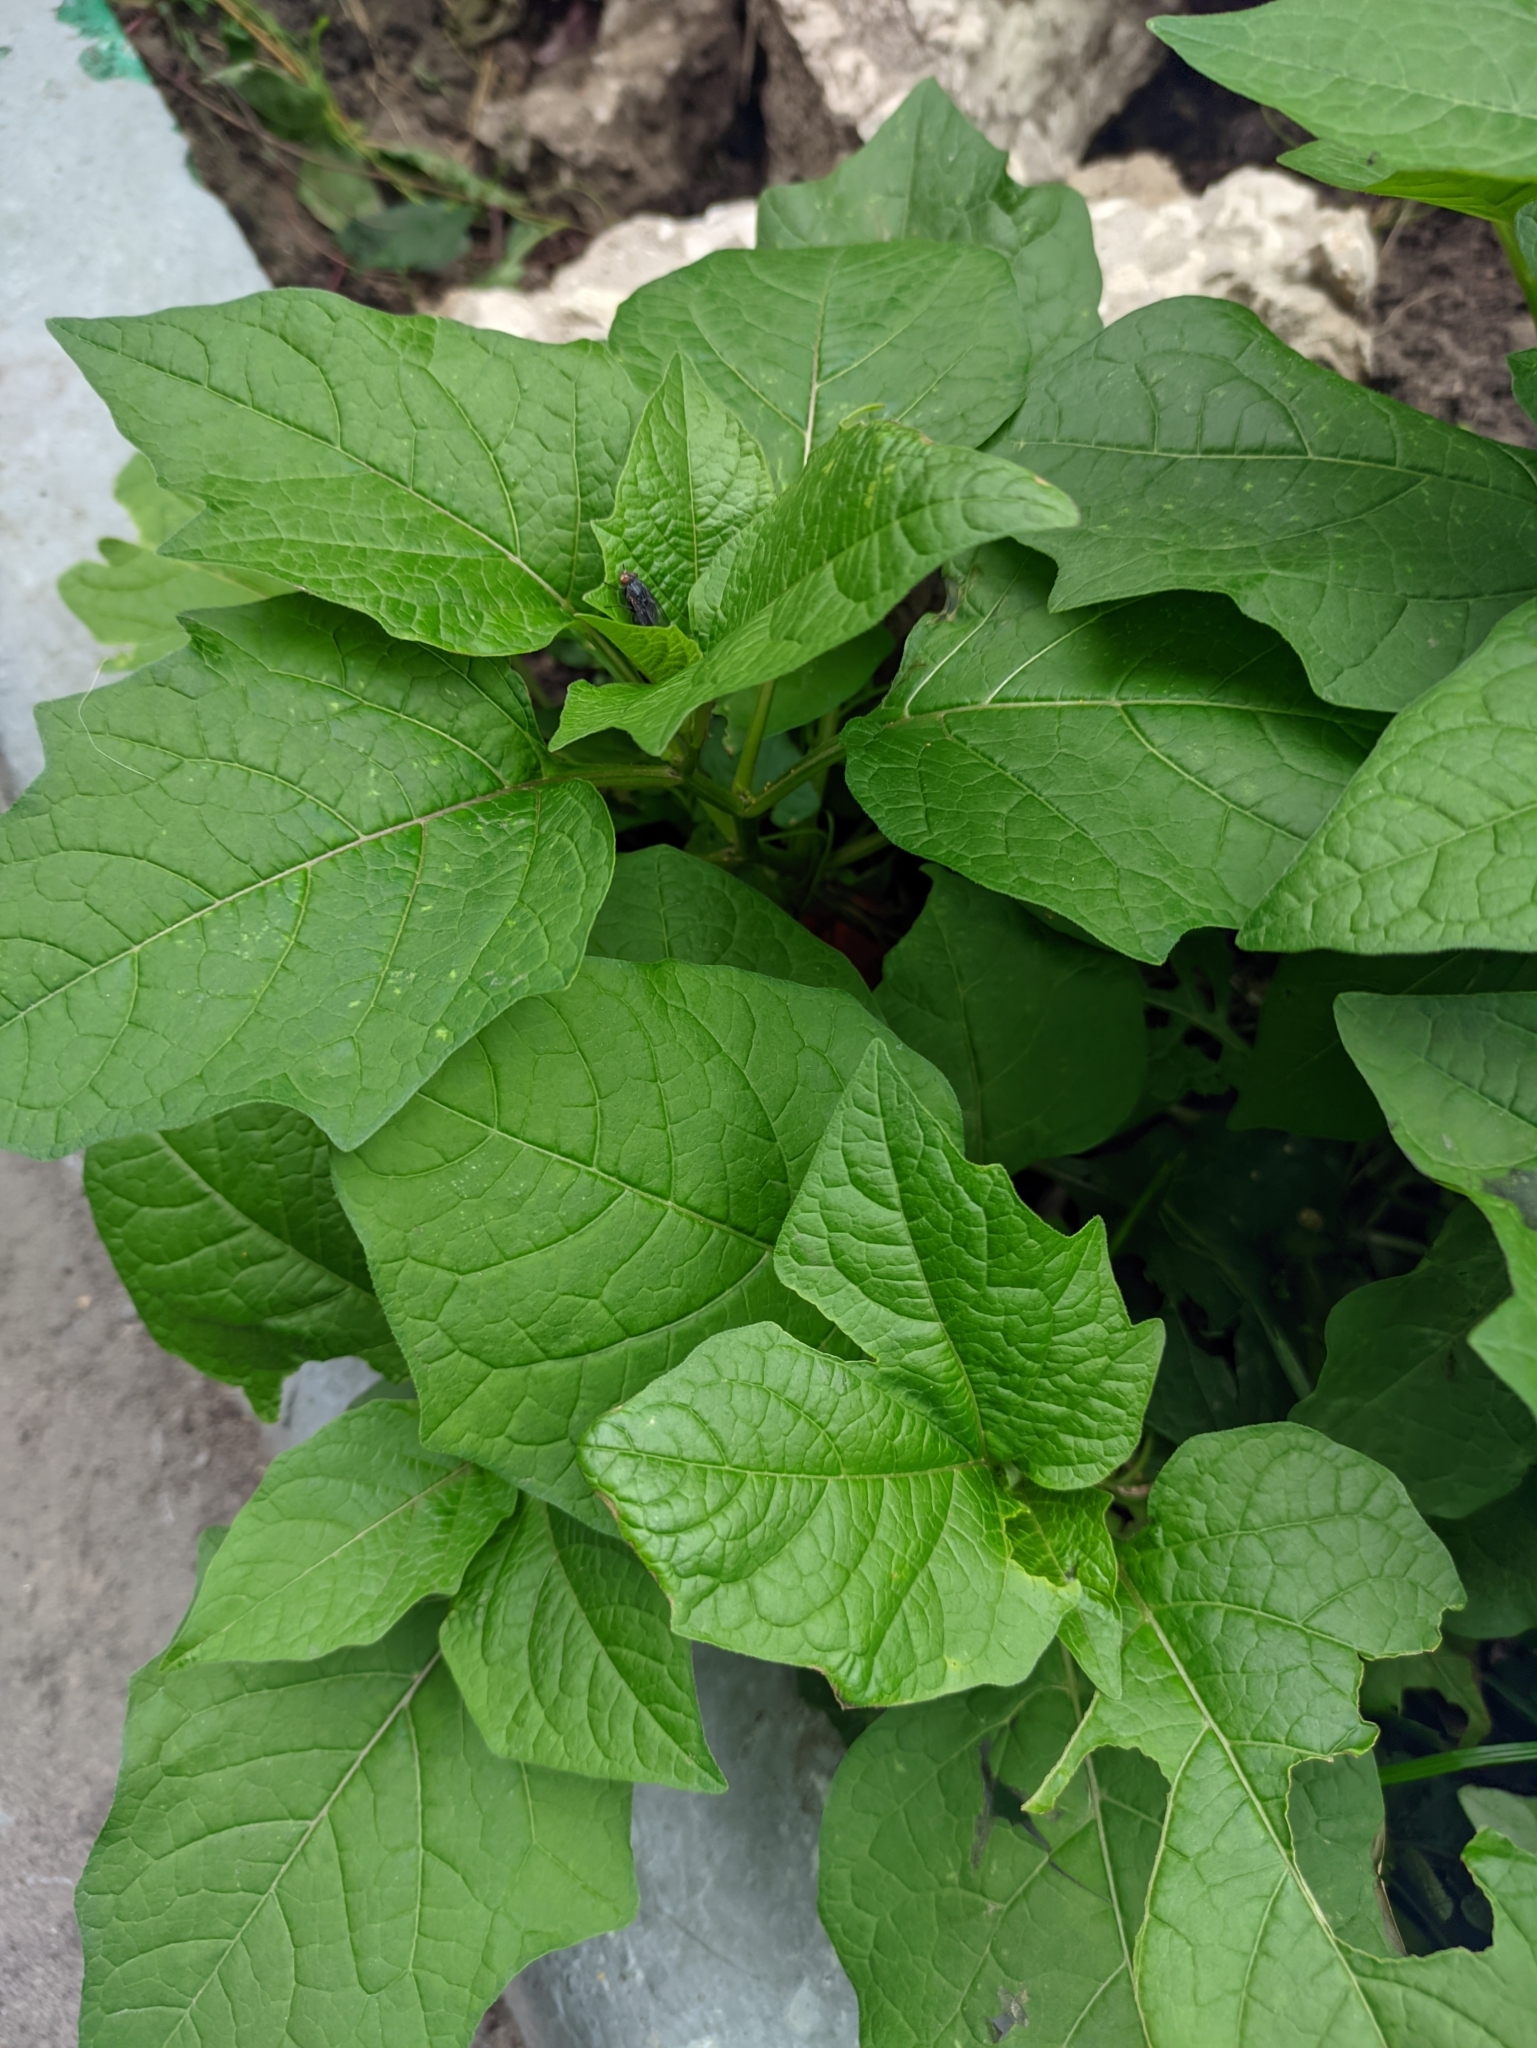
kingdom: Plantae
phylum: Tracheophyta
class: Magnoliopsida
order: Solanales
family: Solanaceae
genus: Alkekengi
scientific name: Alkekengi officinarum
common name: Japanese-lantern
